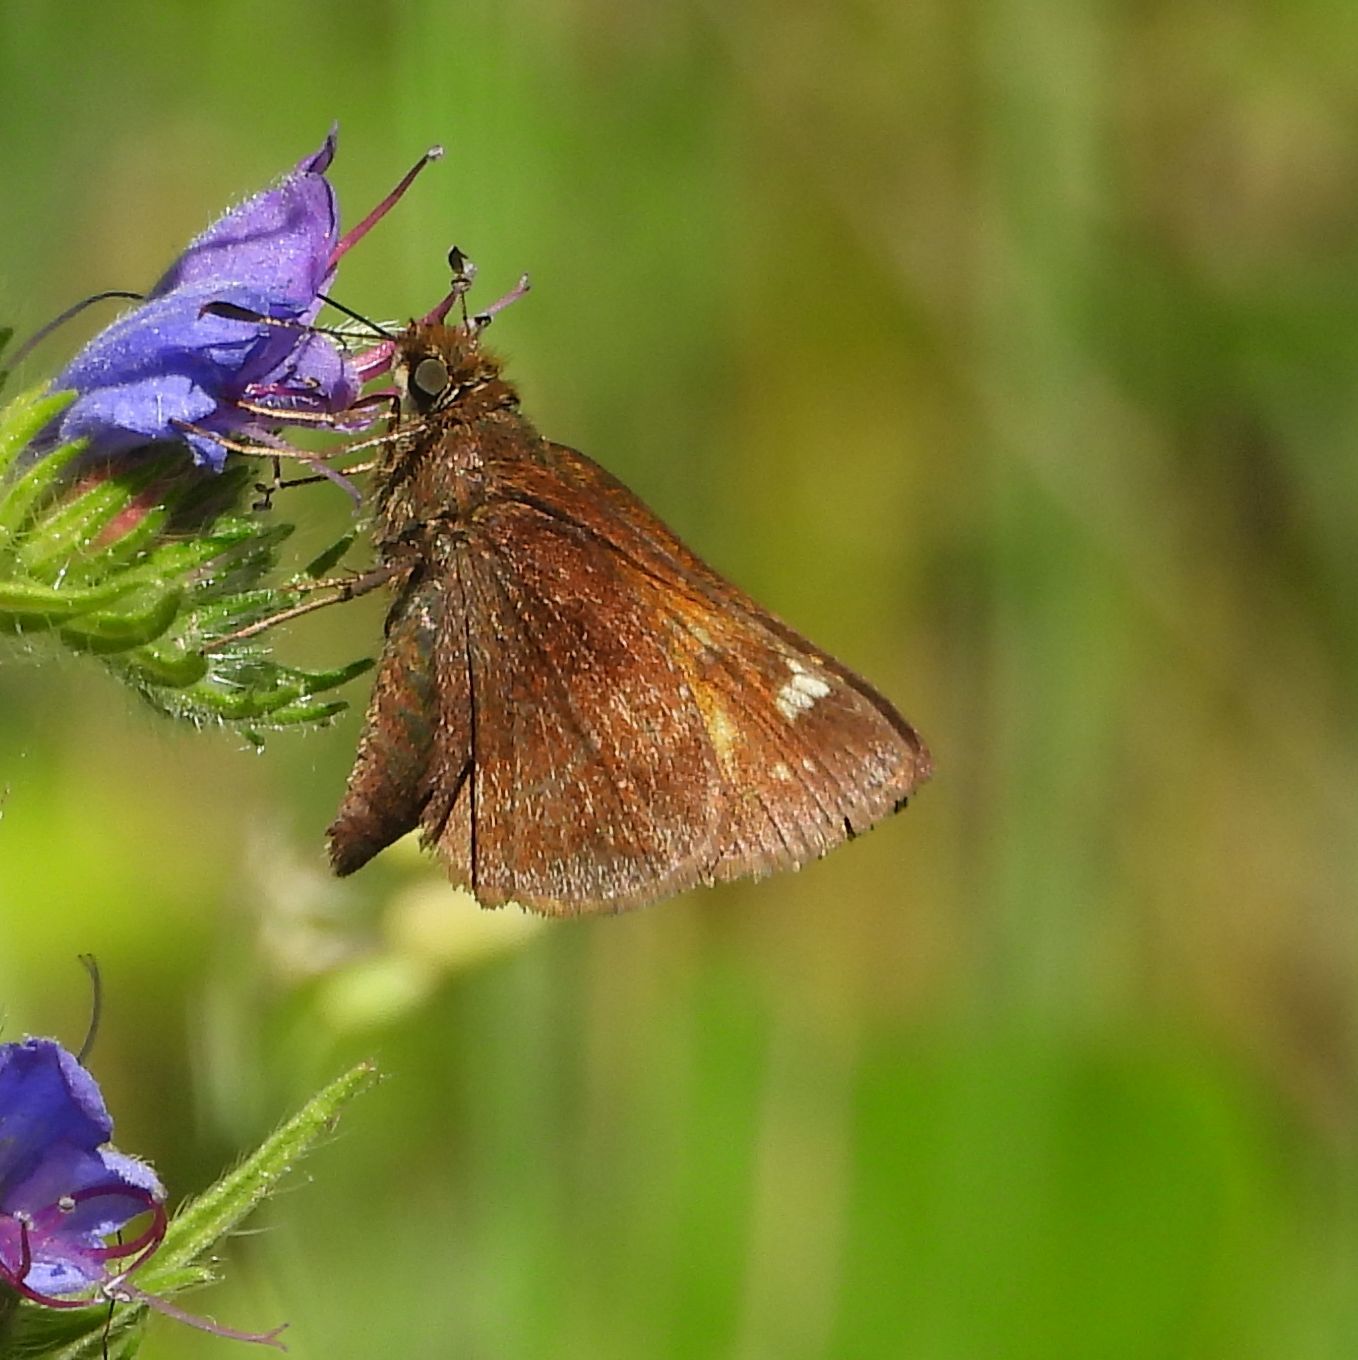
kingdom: Animalia
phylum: Arthropoda
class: Insecta
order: Lepidoptera
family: Hesperiidae
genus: Lon
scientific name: Lon hobomok
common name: Hobomok skipper
